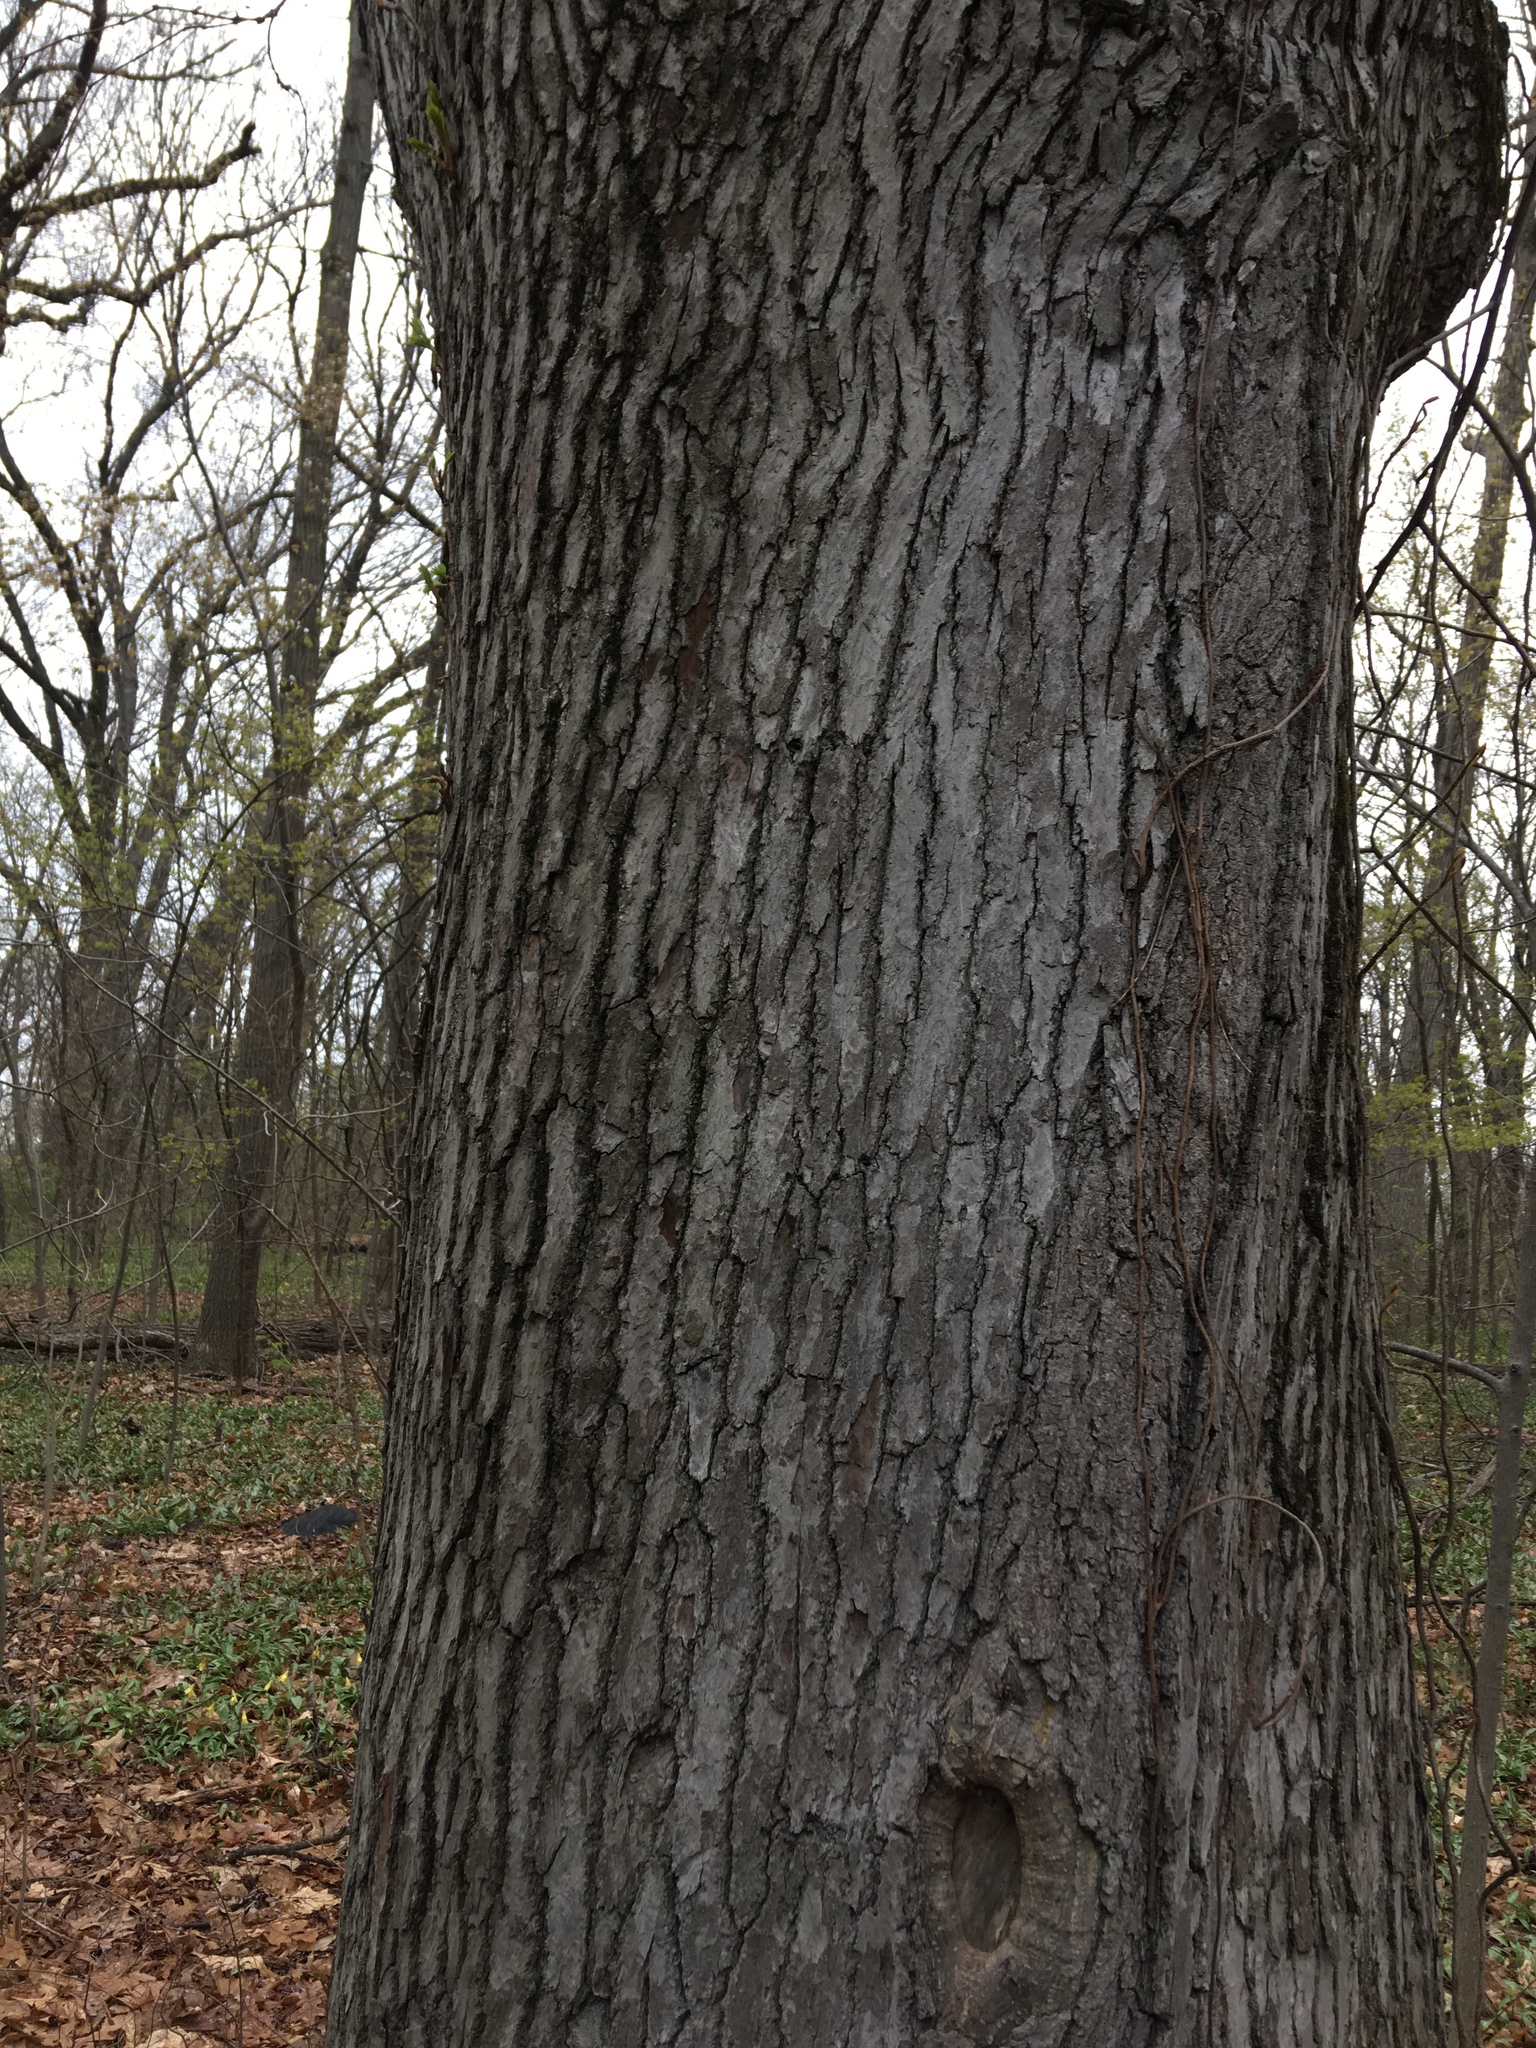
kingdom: Plantae
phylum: Tracheophyta
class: Magnoliopsida
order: Saxifragales
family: Altingiaceae
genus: Liquidambar
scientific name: Liquidambar styraciflua
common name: Sweet gum
